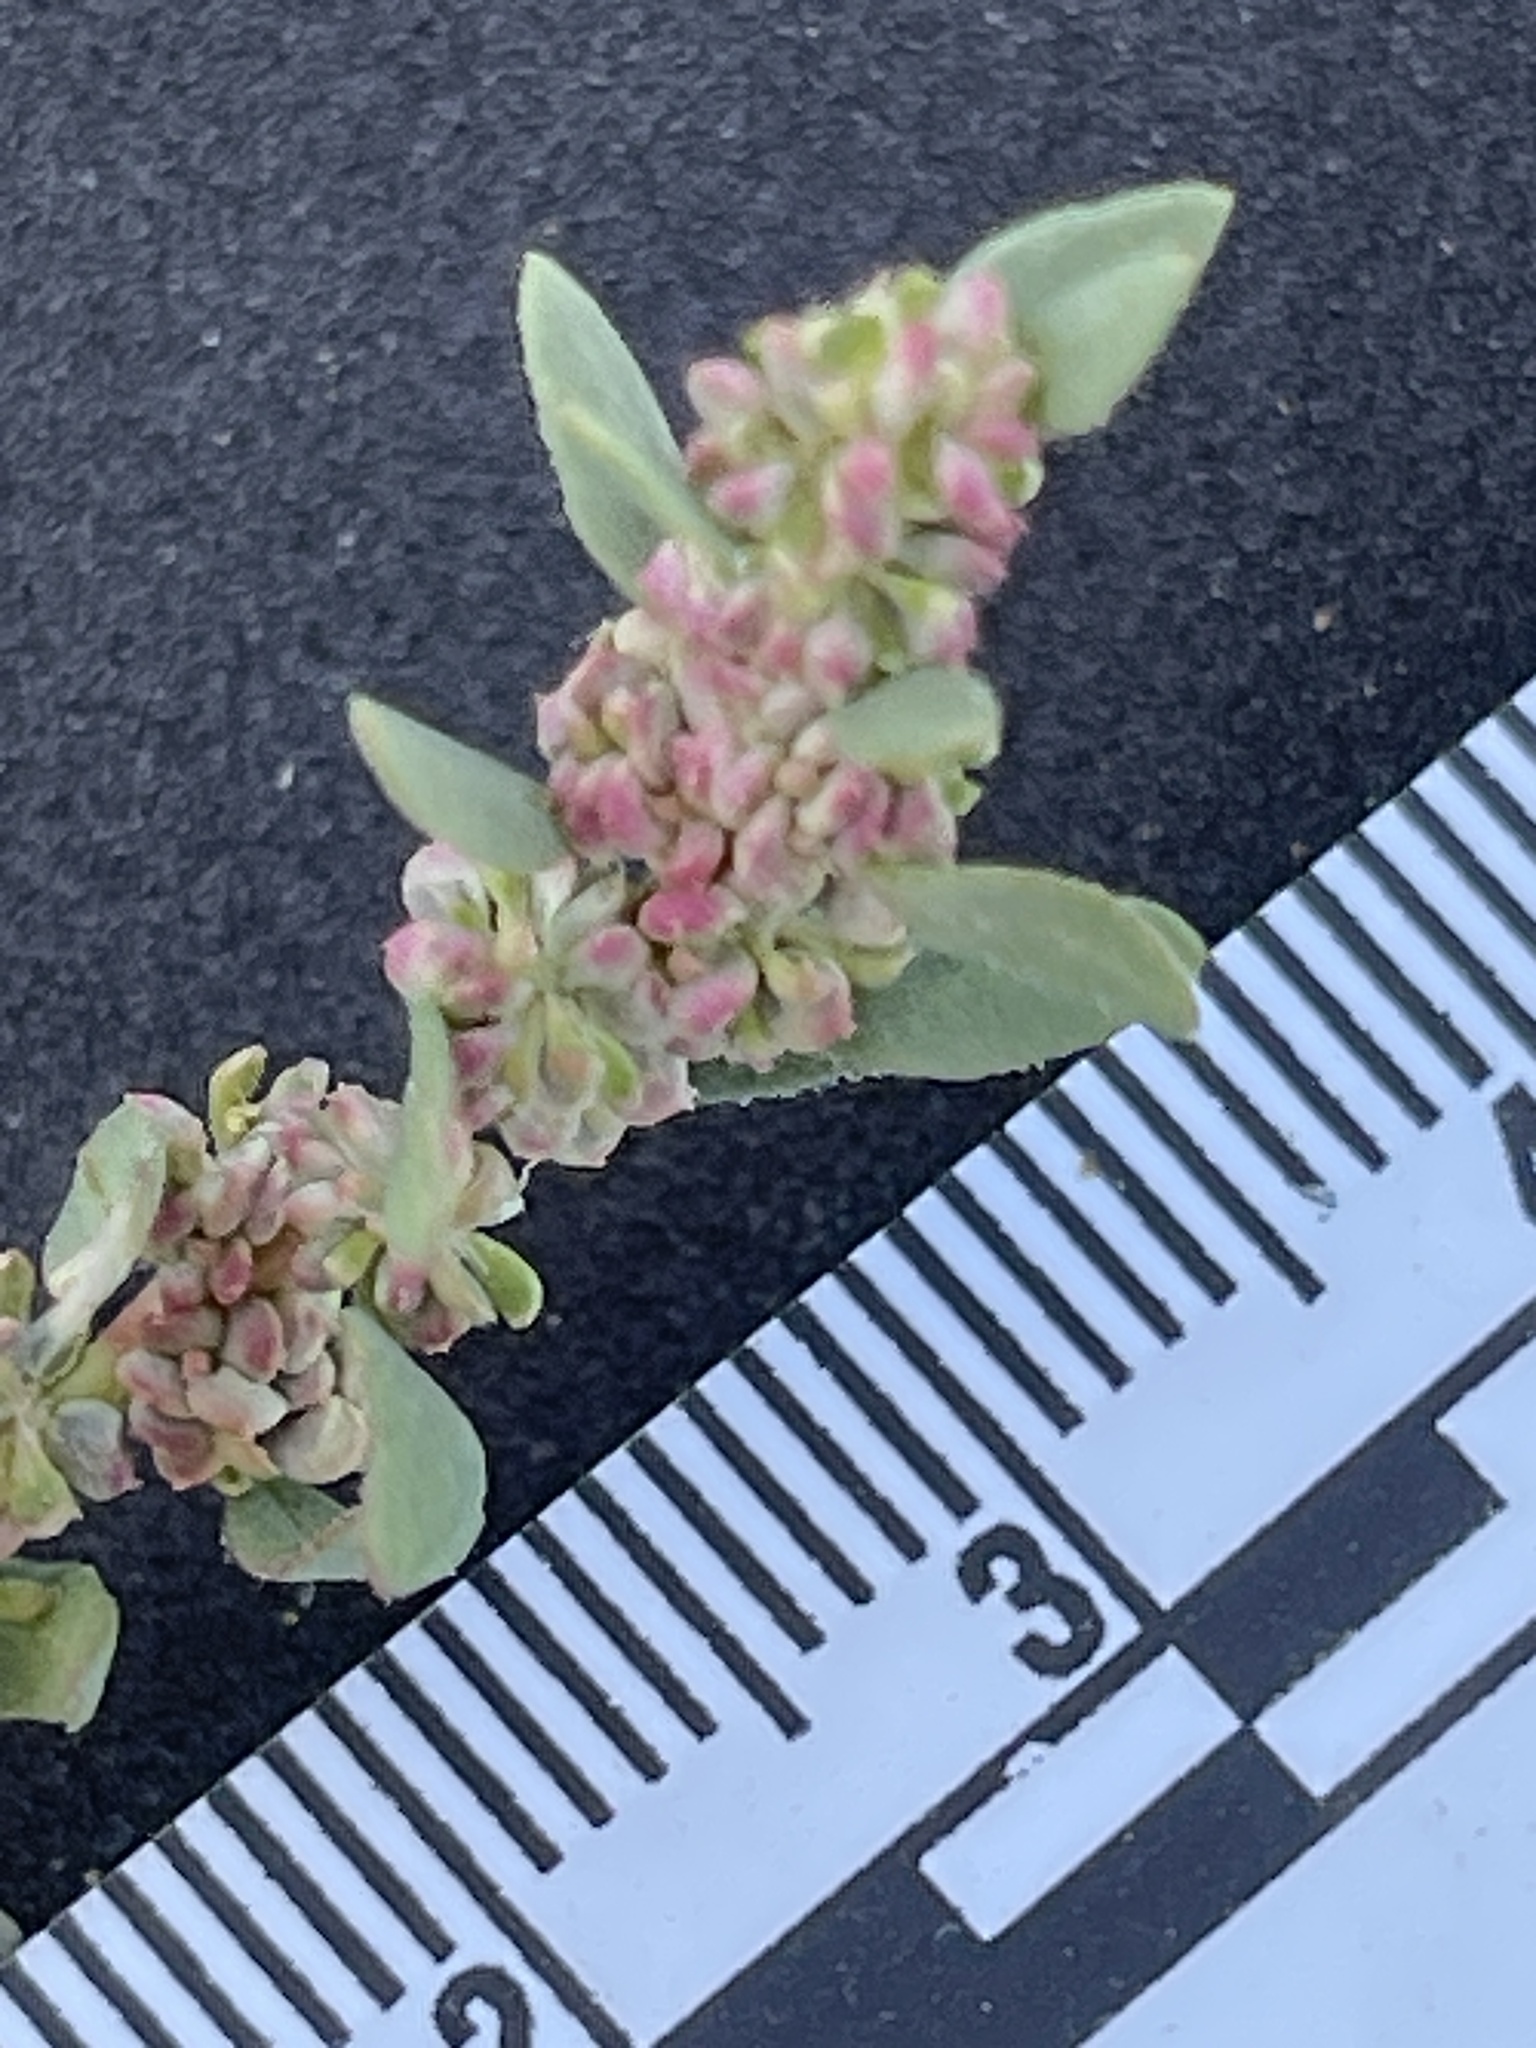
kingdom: Plantae
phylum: Tracheophyta
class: Magnoliopsida
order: Caryophyllales
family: Amaranthaceae
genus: Blitum
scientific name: Blitum nuttallianum
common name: Poverty-weed
